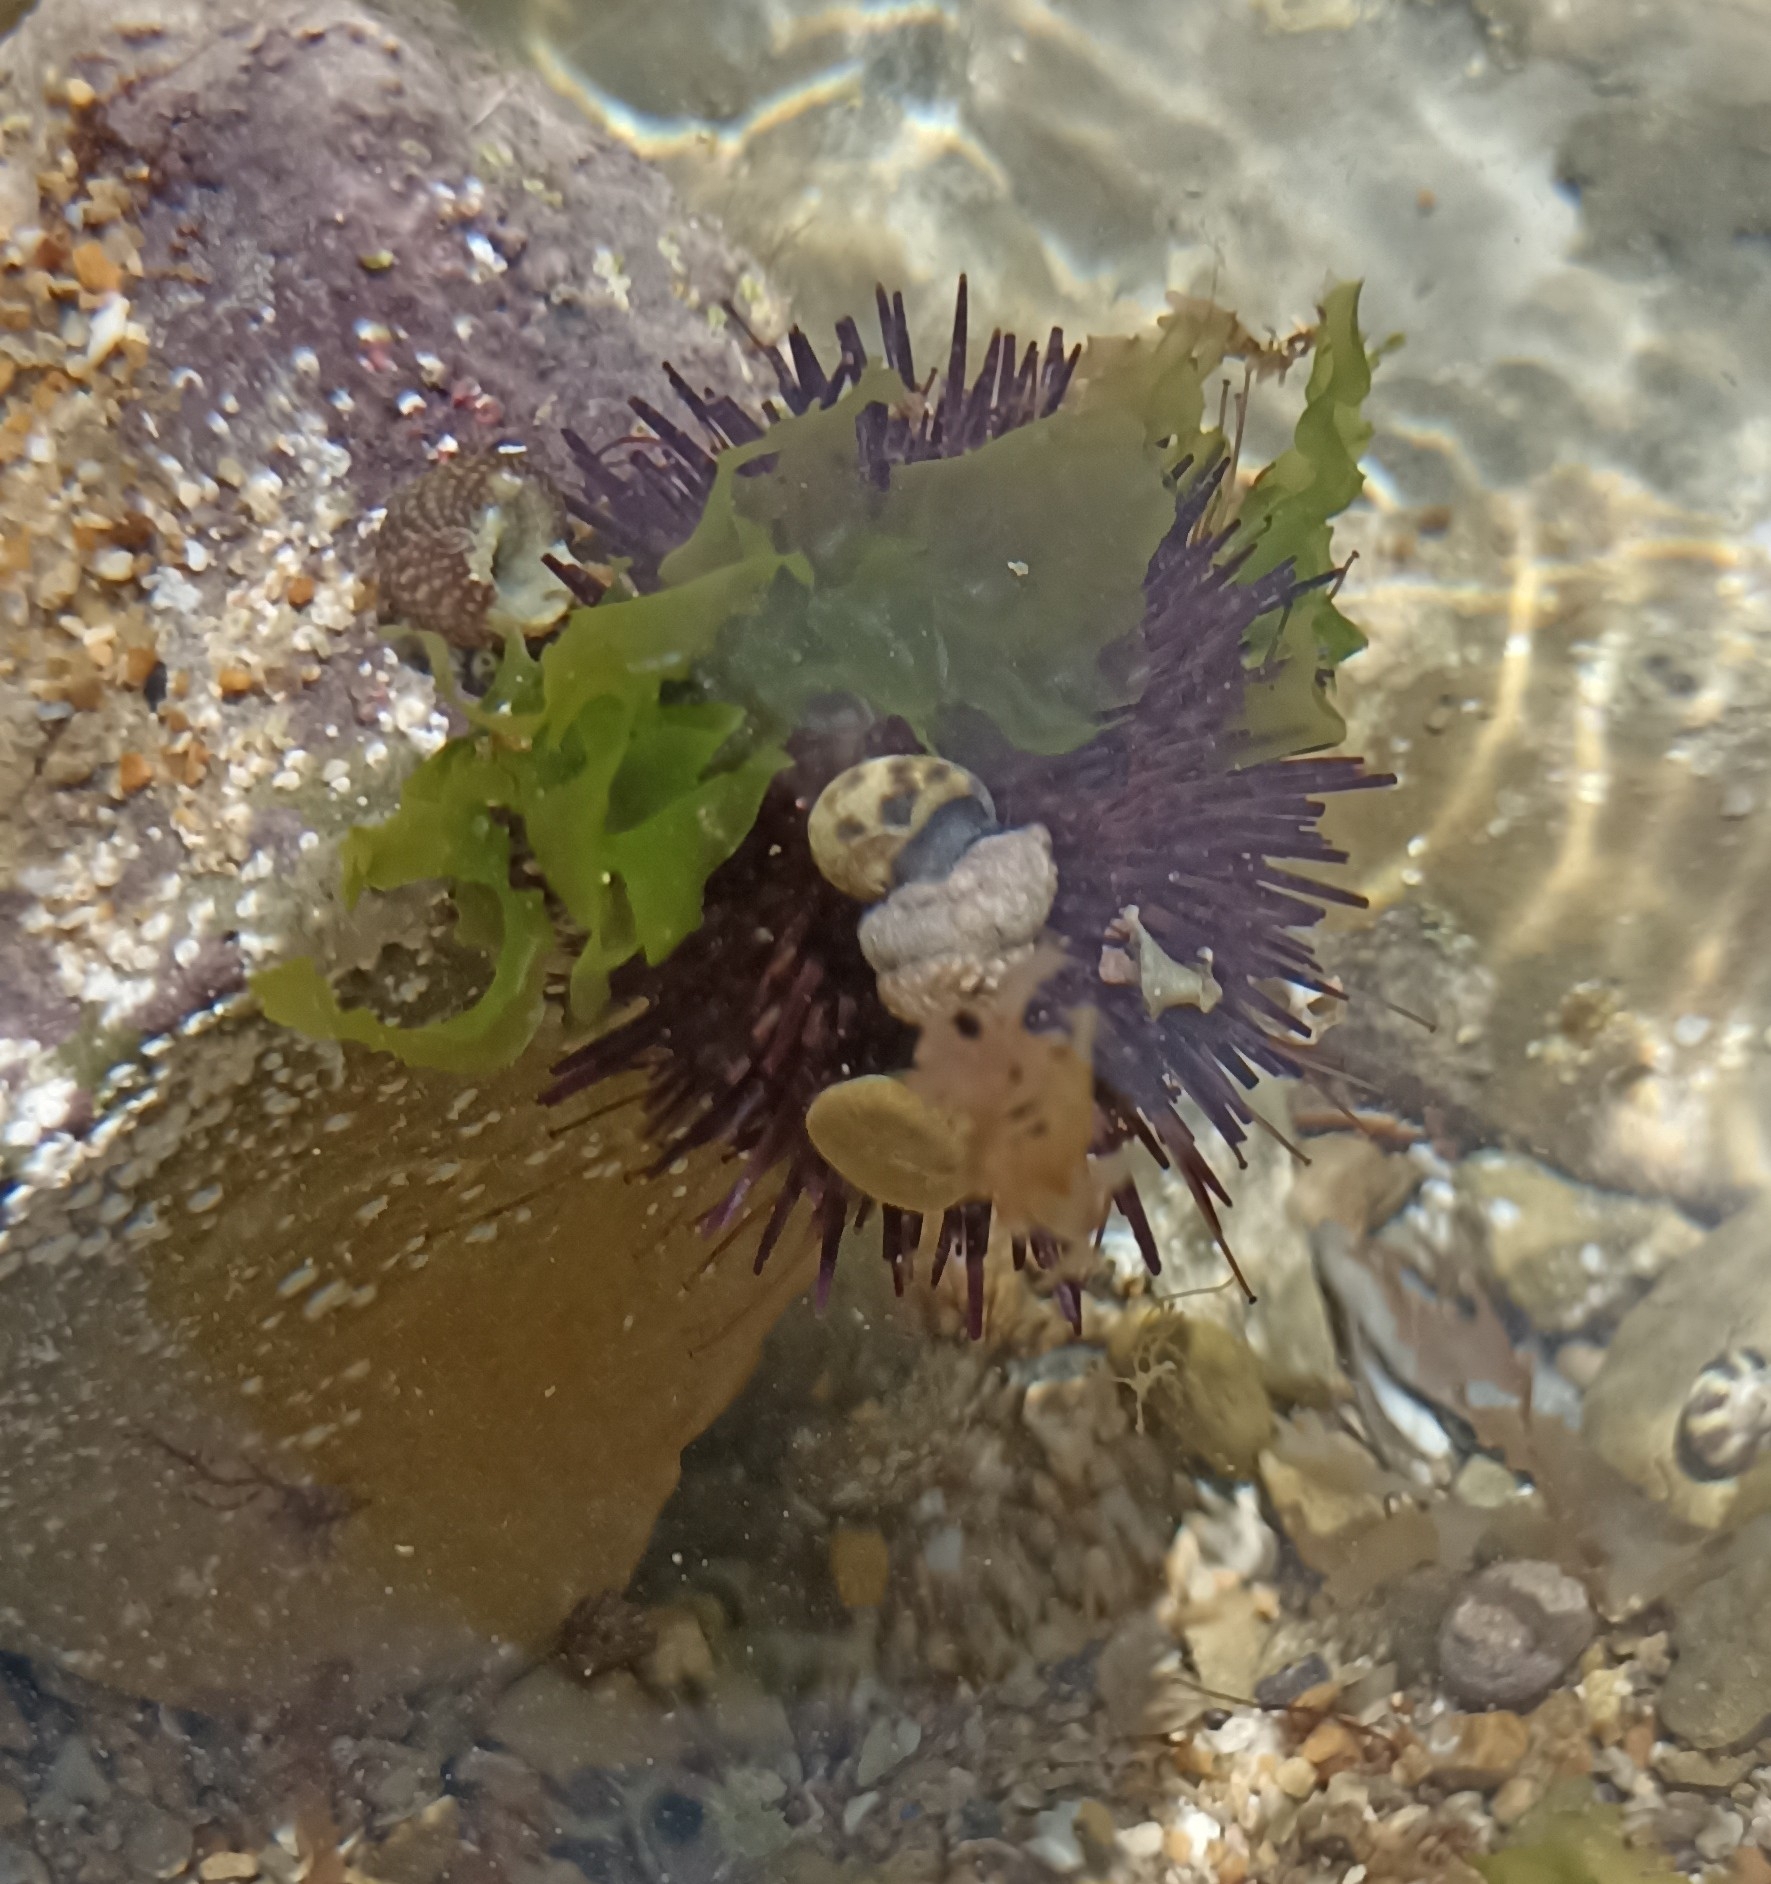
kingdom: Animalia
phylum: Echinodermata
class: Echinoidea
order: Camarodonta
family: Parechinidae
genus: Paracentrotus
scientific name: Paracentrotus lividus
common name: Purple sea urchin
